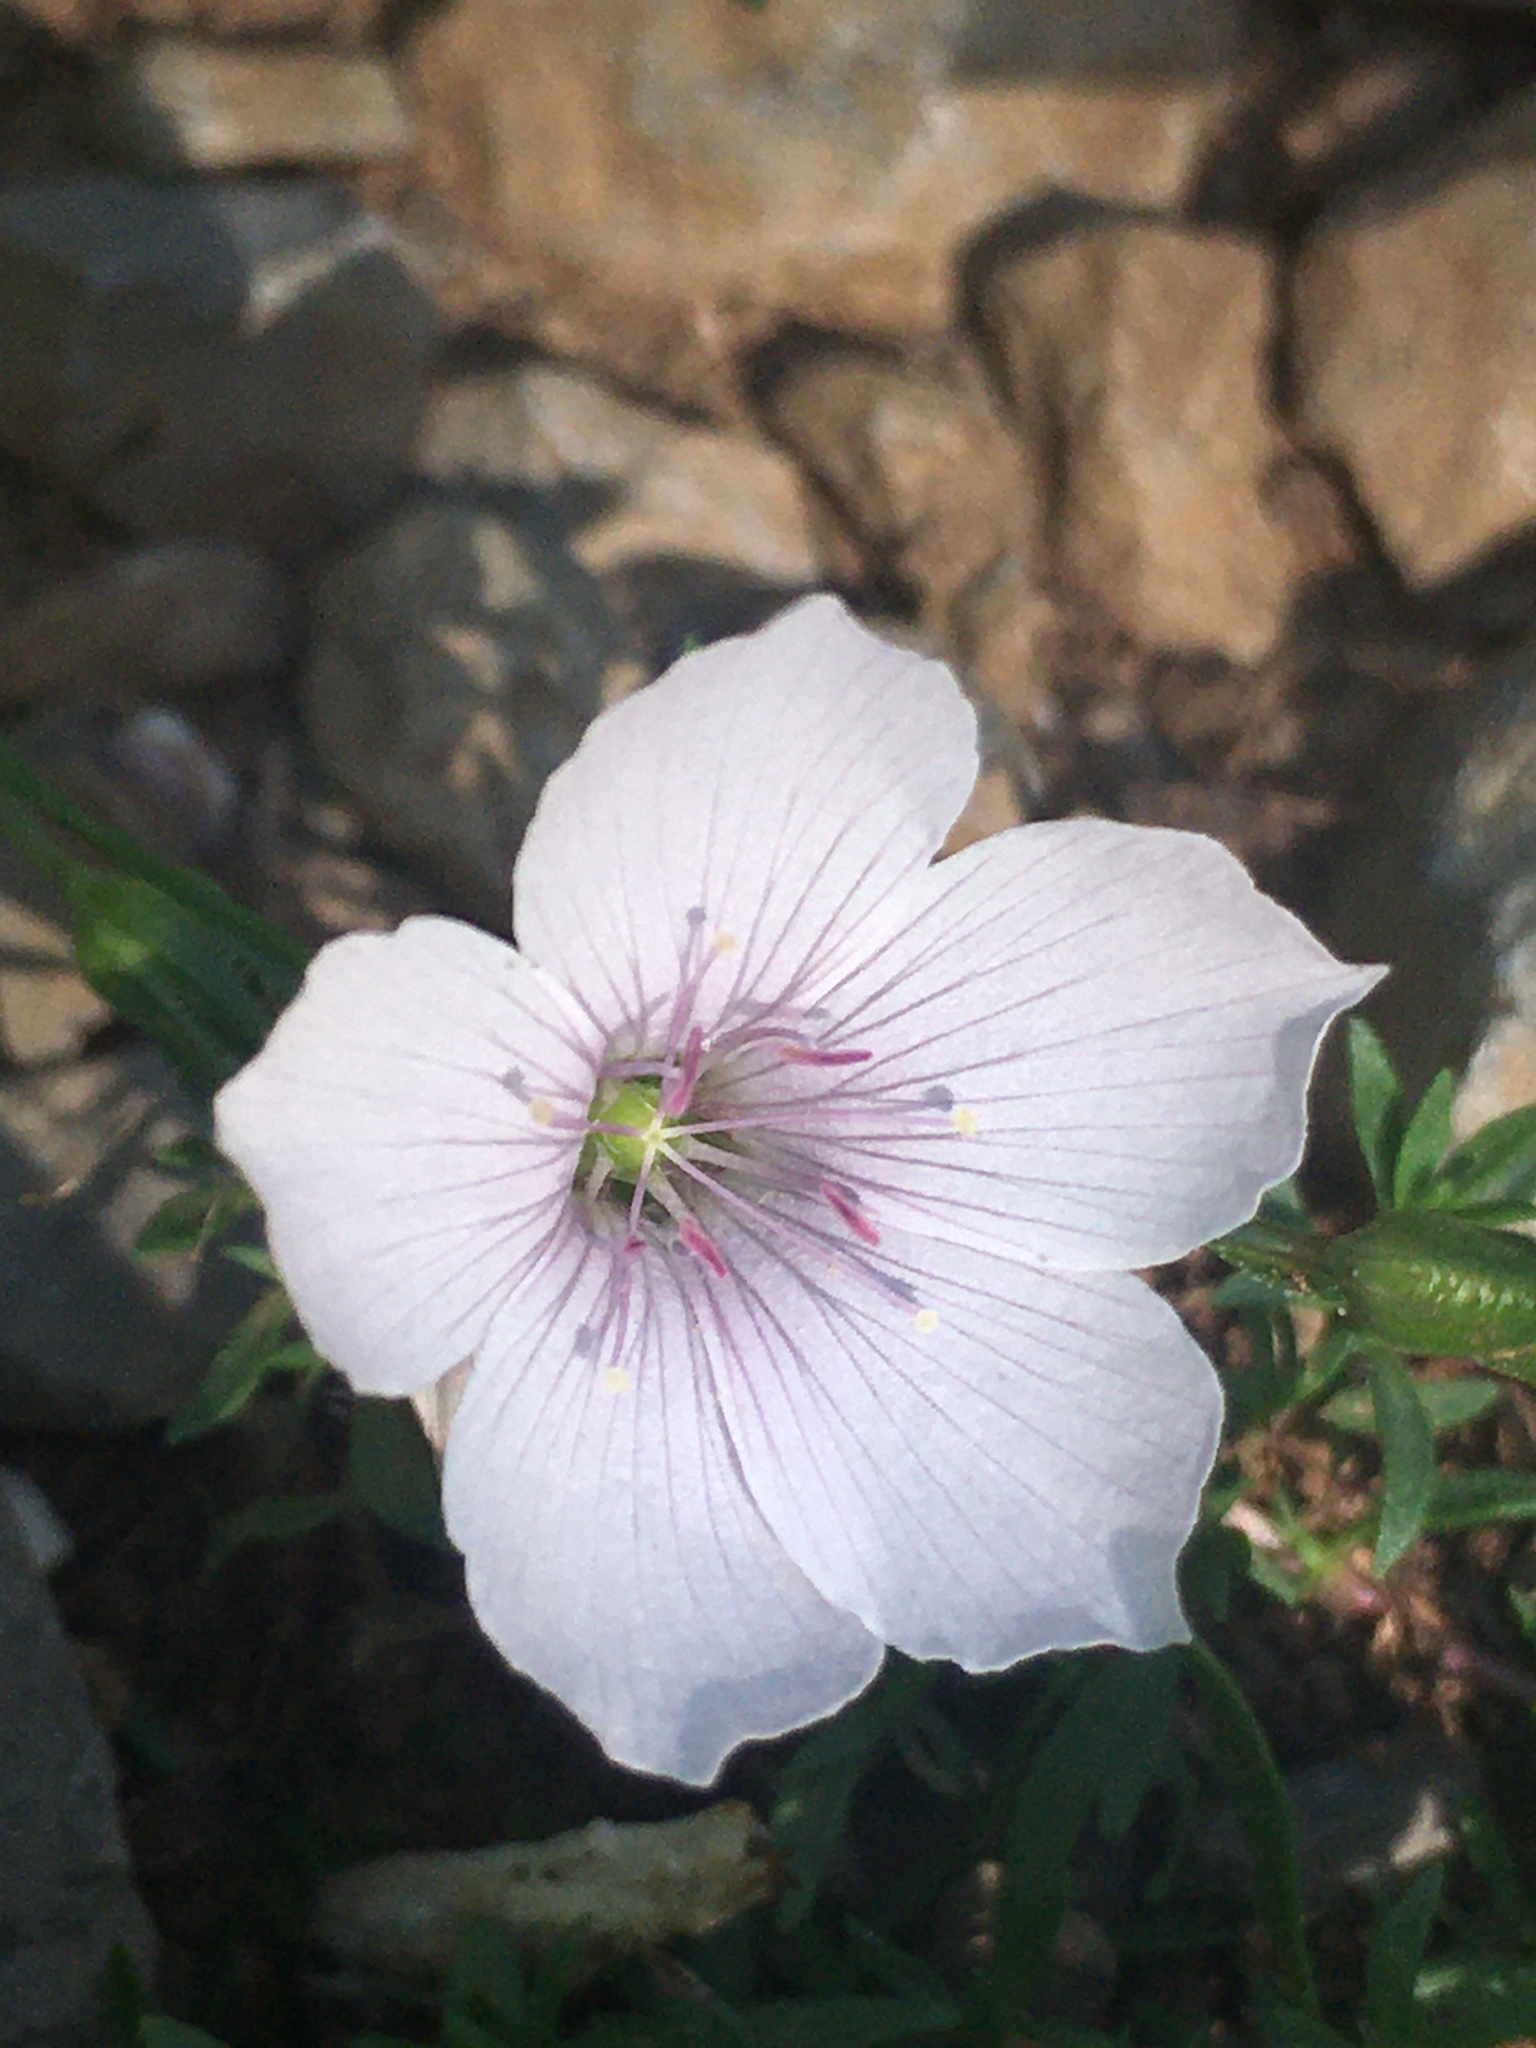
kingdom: Plantae
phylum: Tracheophyta
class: Magnoliopsida
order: Malpighiales
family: Linaceae
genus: Linum
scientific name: Linum tenuifolium
